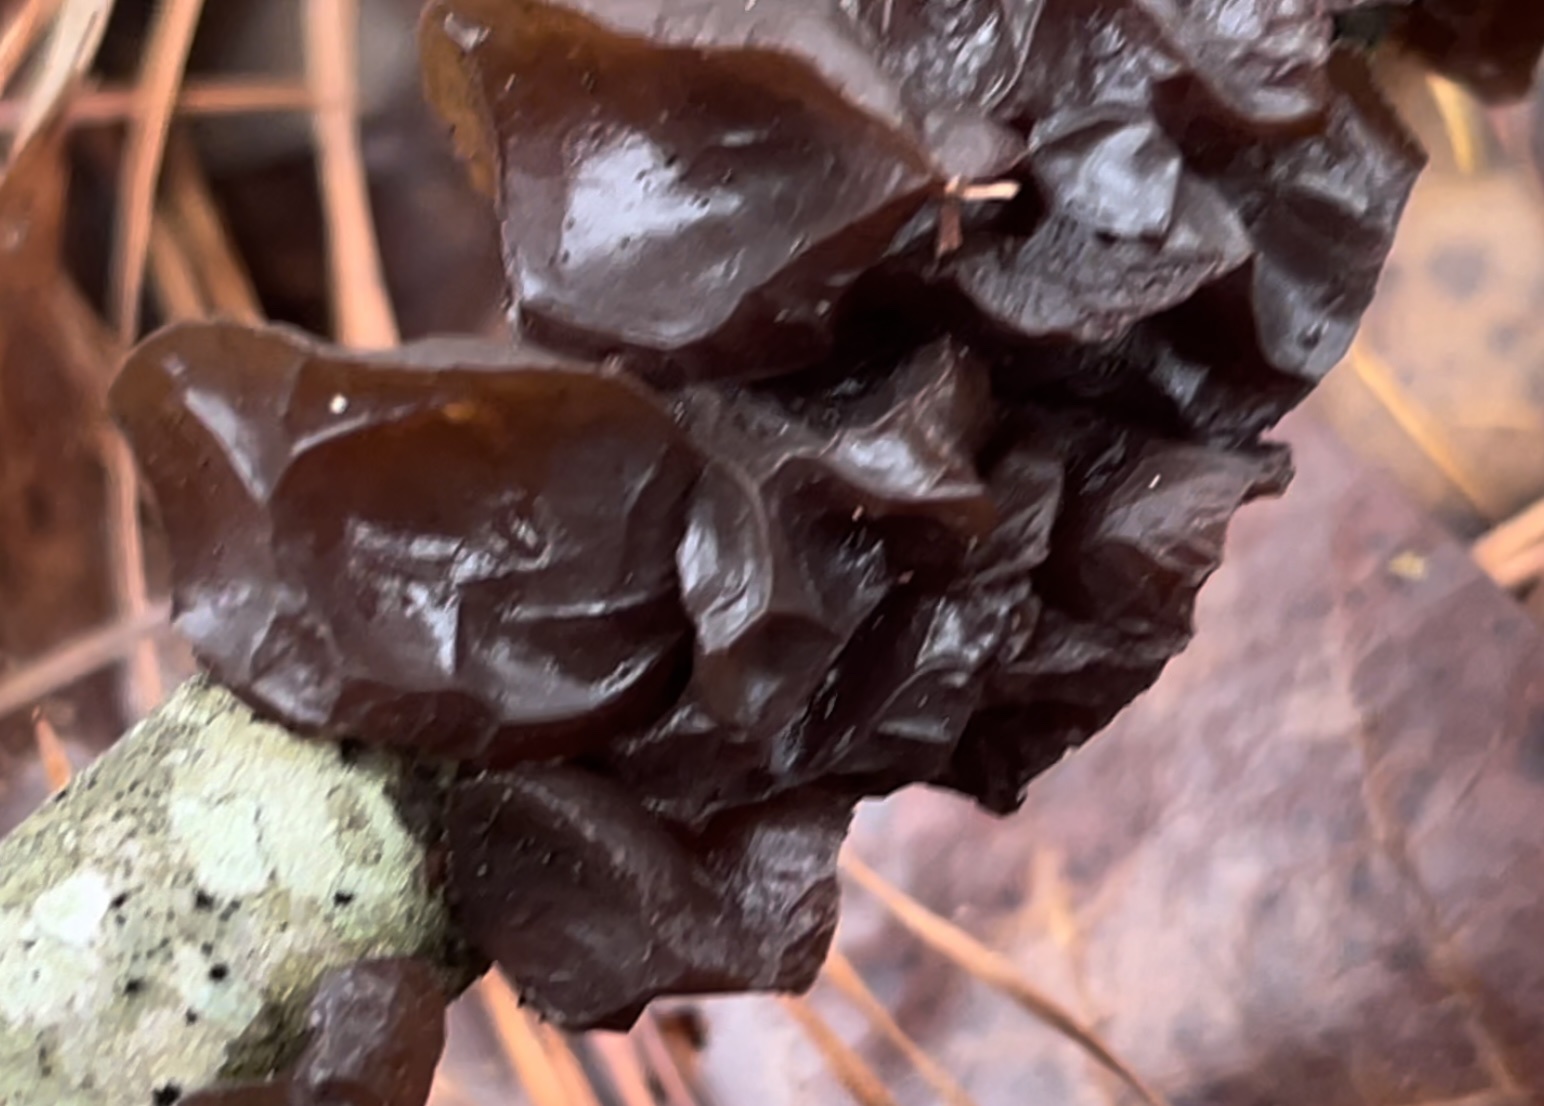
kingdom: Fungi
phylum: Basidiomycota
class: Agaricomycetes
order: Auriculariales
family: Auriculariaceae
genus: Exidia
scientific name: Exidia
